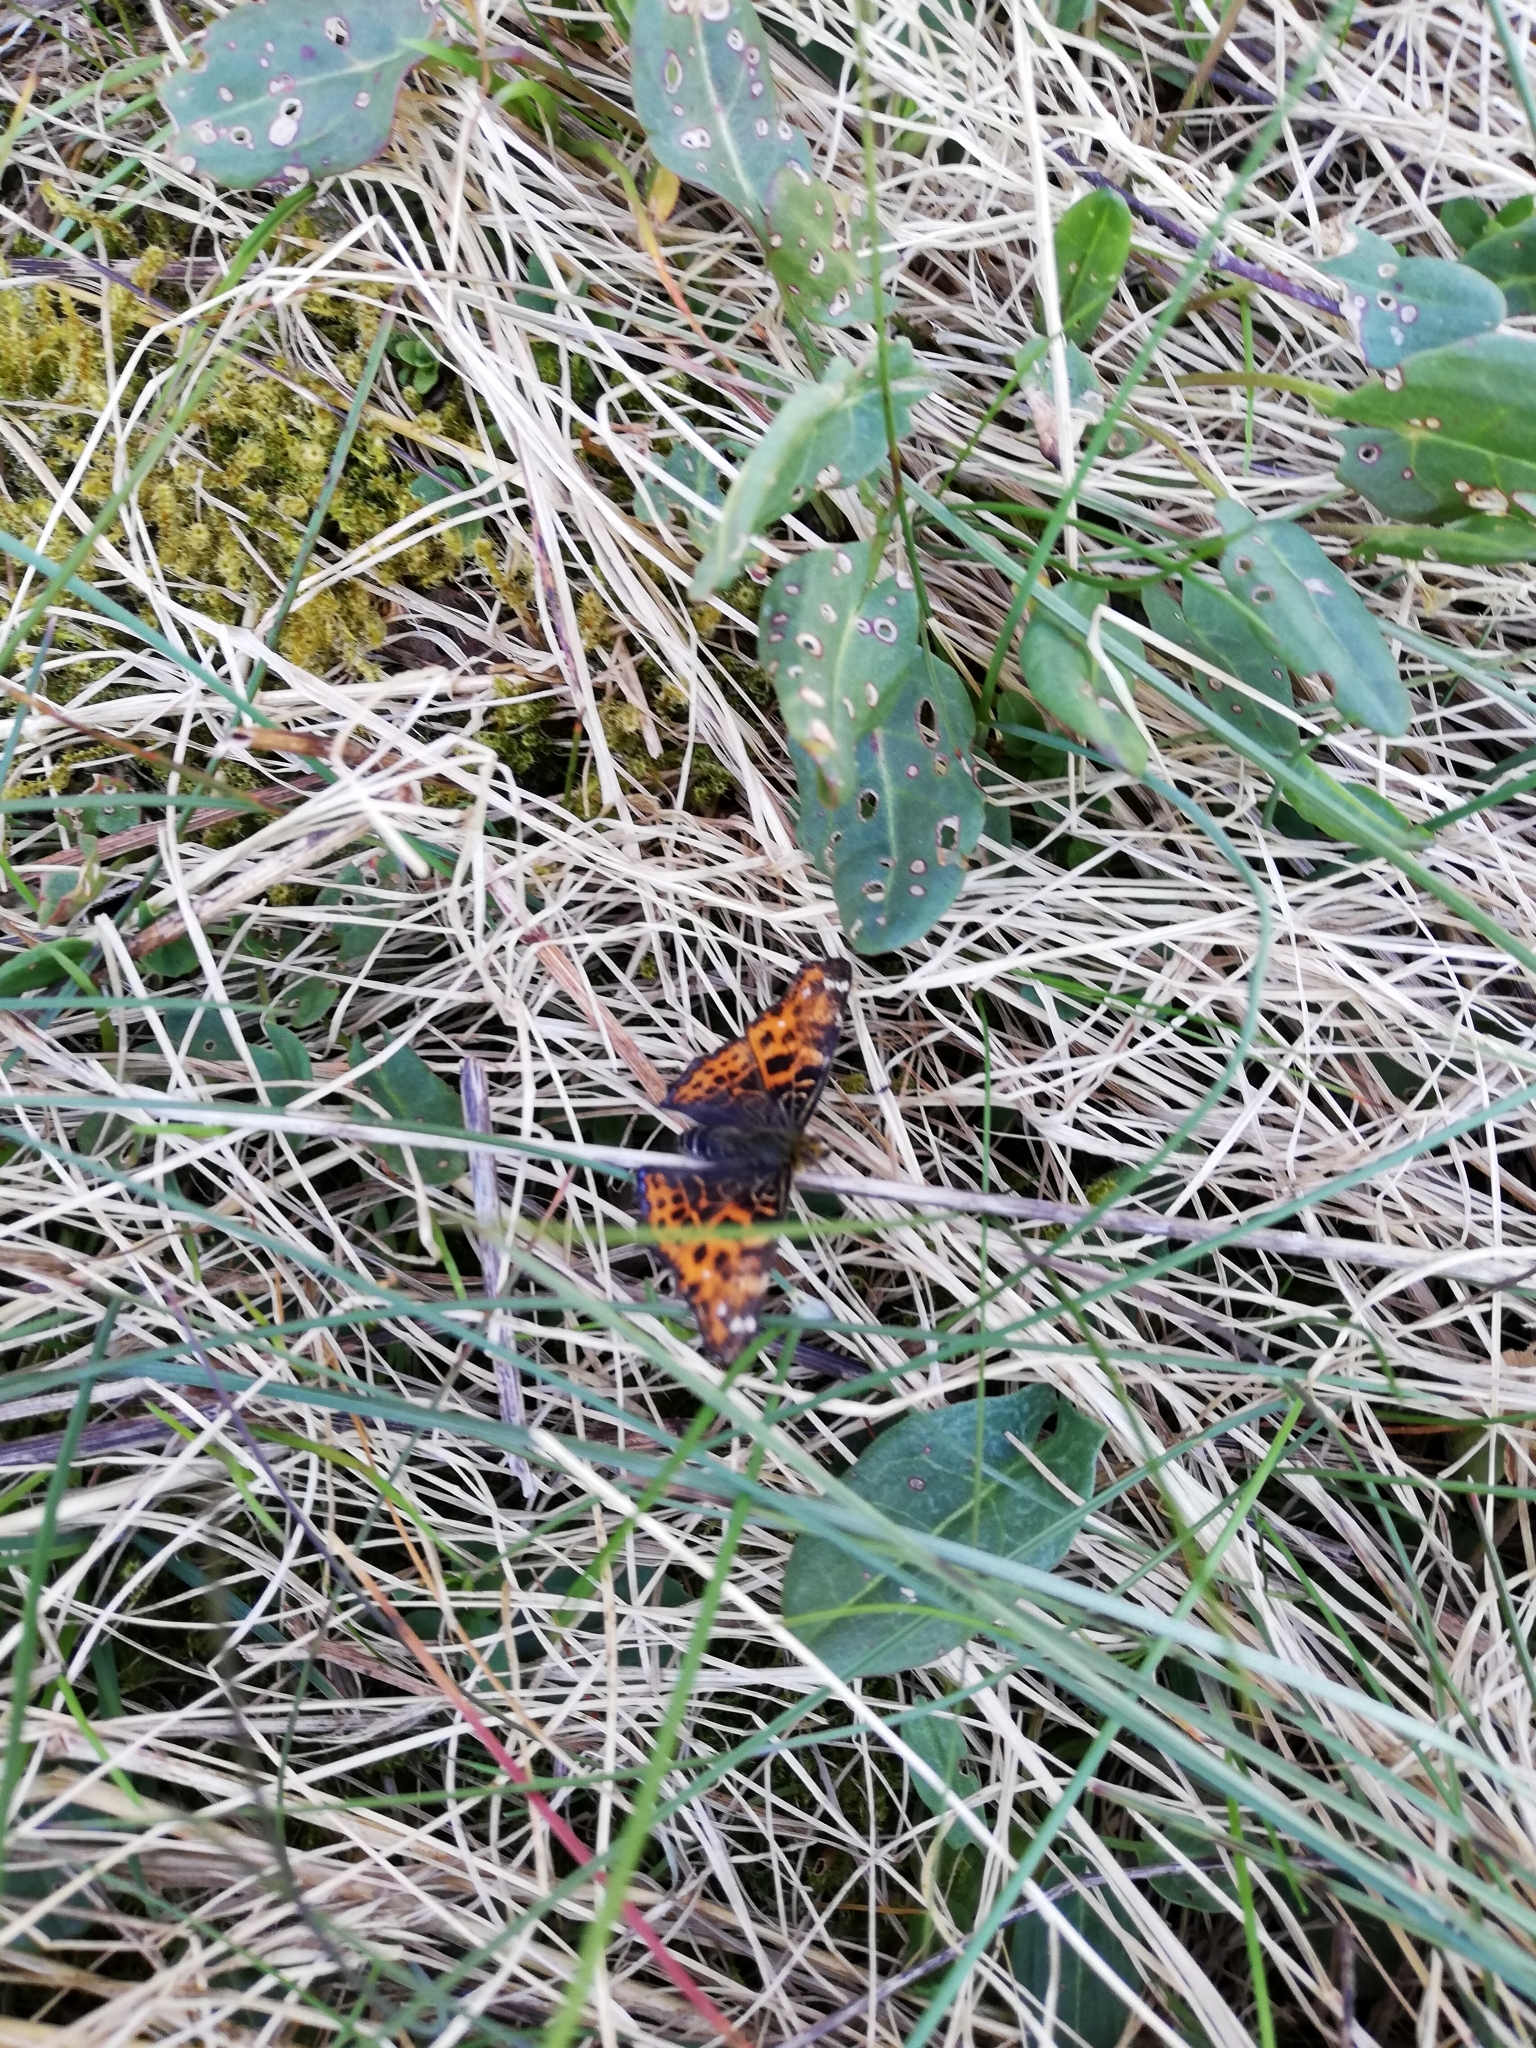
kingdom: Animalia
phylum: Arthropoda
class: Insecta
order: Lepidoptera
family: Nymphalidae
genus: Araschnia
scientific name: Araschnia levana
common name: Map butterfly
